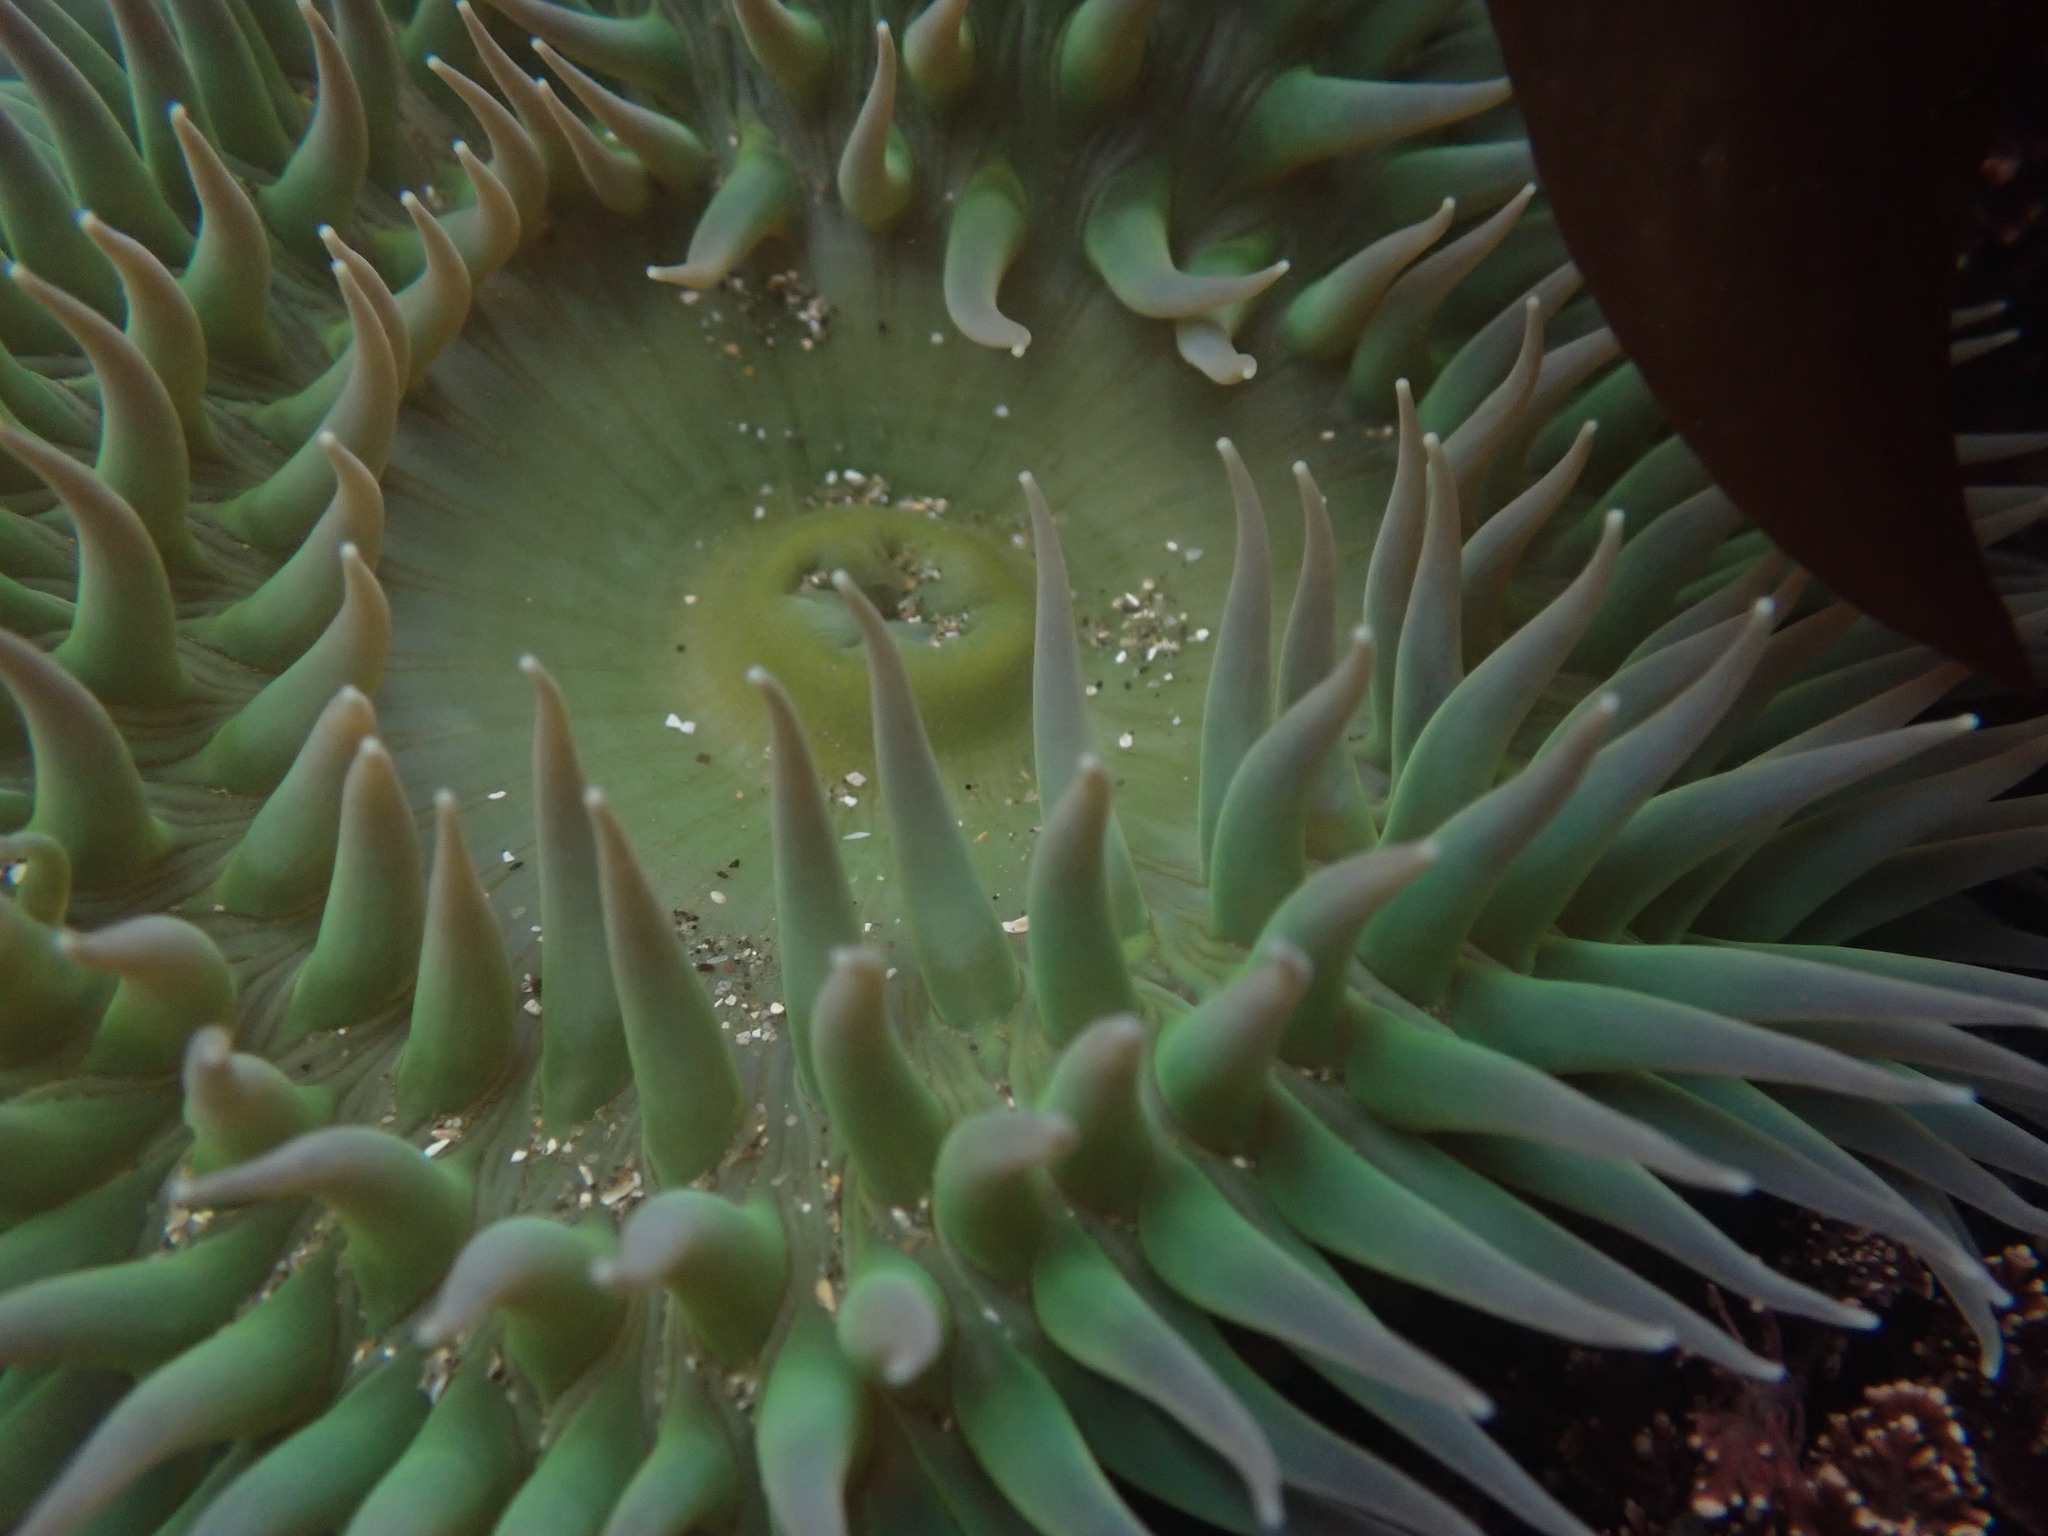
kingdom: Animalia
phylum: Cnidaria
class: Anthozoa
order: Actiniaria
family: Actiniidae
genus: Anthopleura
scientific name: Anthopleura xanthogrammica
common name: Giant green anemone
